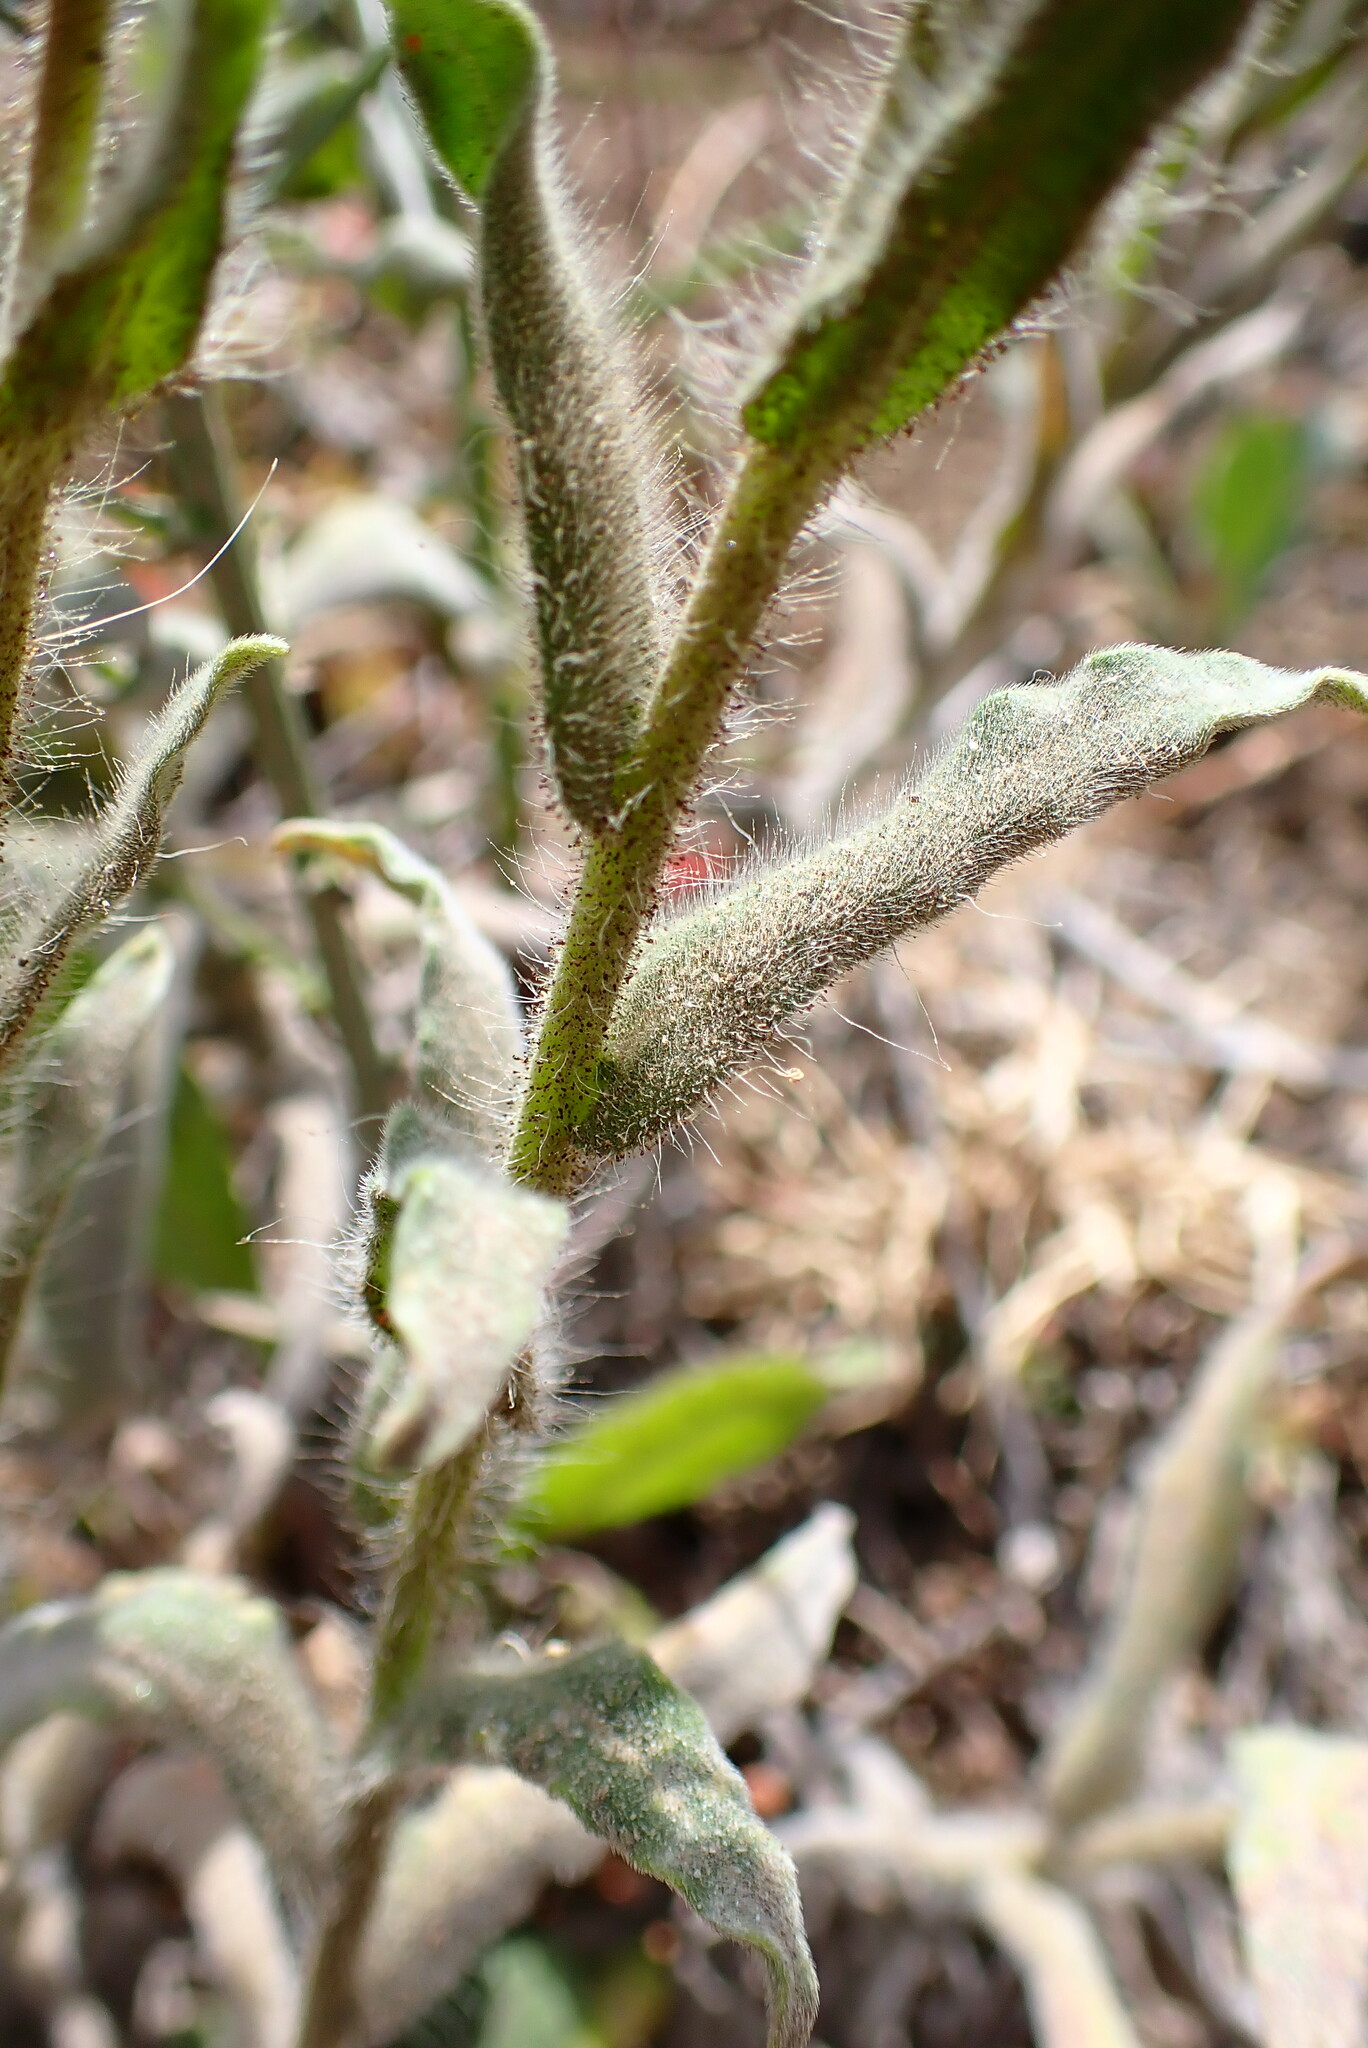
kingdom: Plantae
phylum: Tracheophyta
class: Magnoliopsida
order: Asterales
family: Asteraceae
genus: Madia
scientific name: Madia sativa
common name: Coast tarweed
